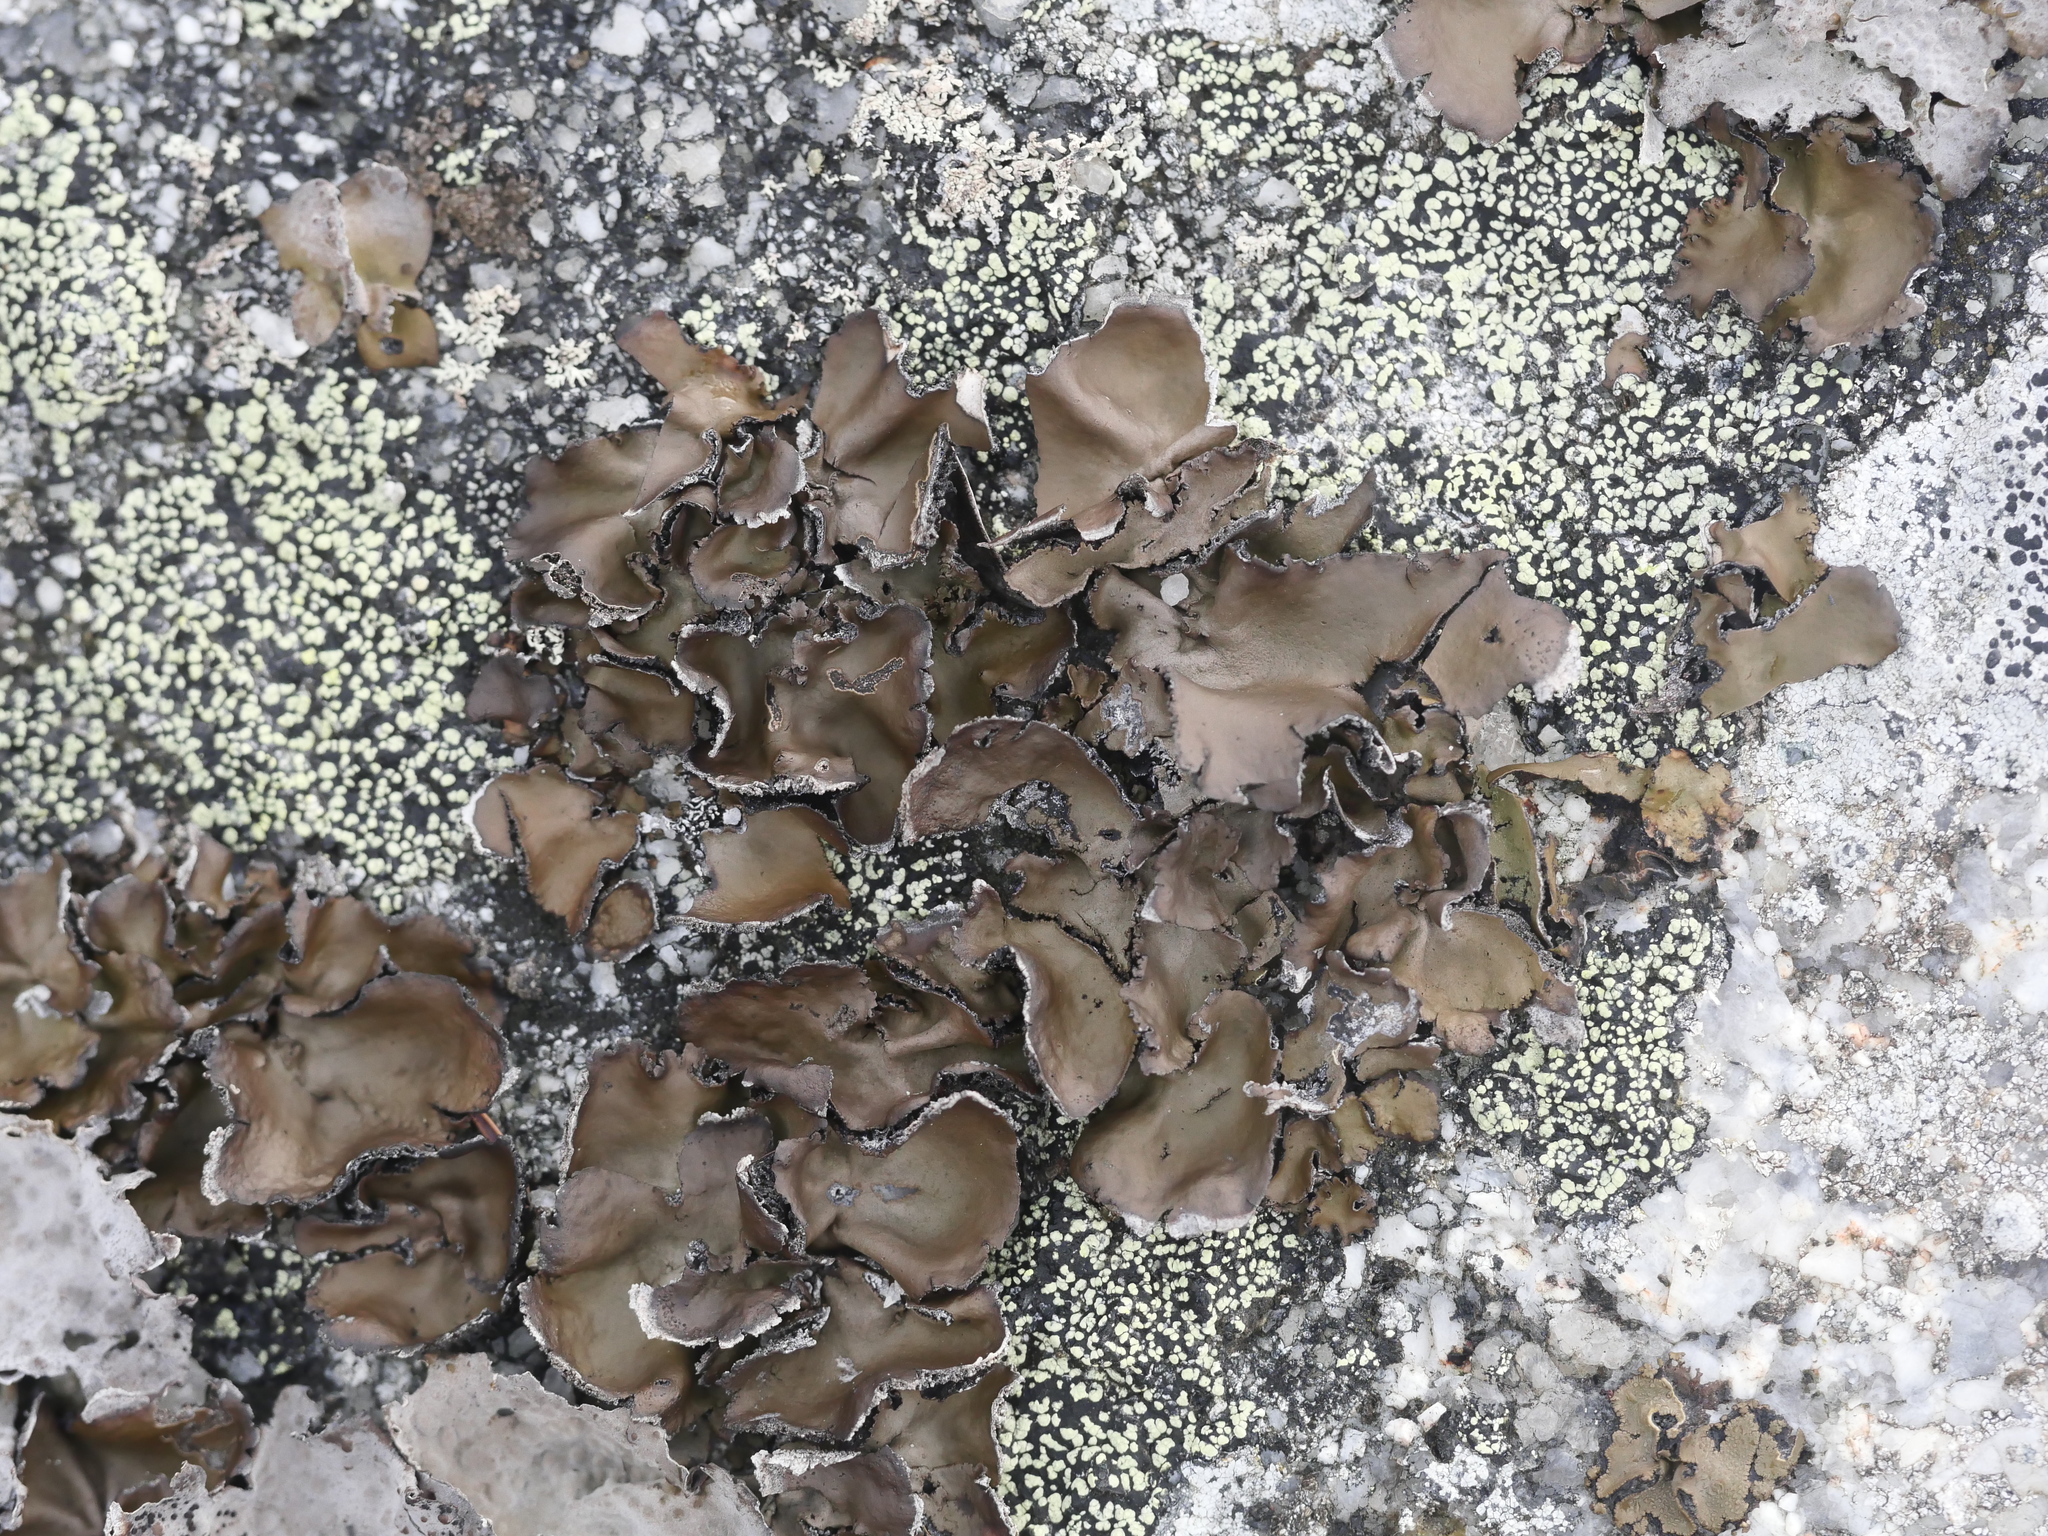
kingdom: Fungi
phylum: Ascomycota
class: Lecanoromycetes
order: Umbilicariales
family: Umbilicariaceae
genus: Umbilicaria
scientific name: Umbilicaria muhlenbergii
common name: Lesser rocktripe
